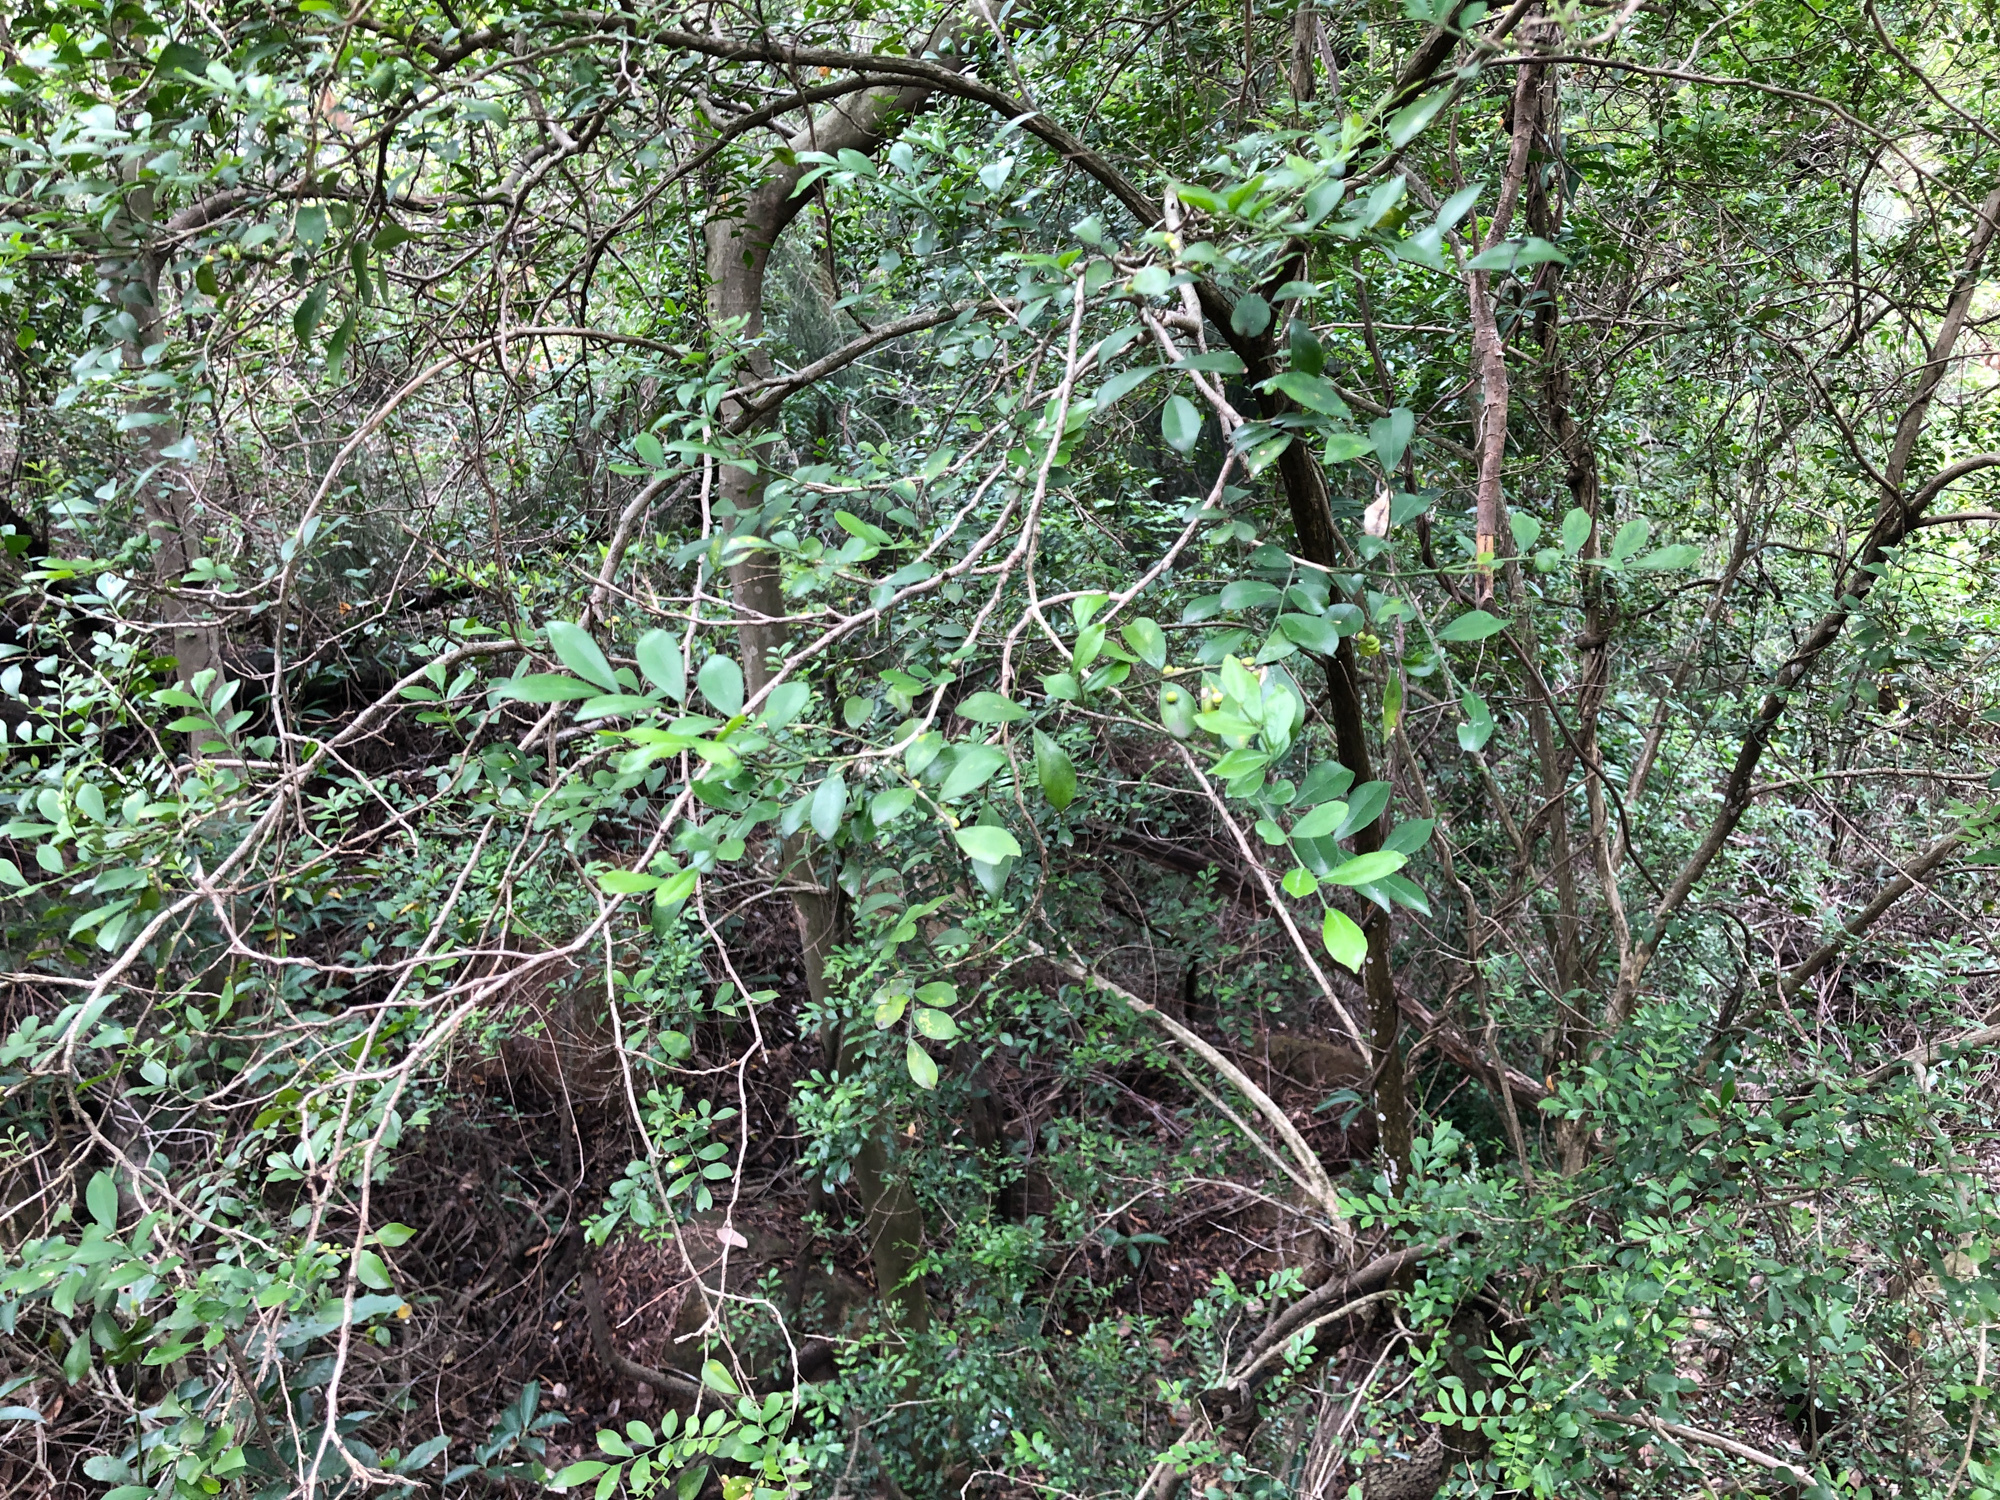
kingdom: Plantae
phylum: Tracheophyta
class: Magnoliopsida
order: Sapindales
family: Rutaceae
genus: Murraya
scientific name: Murraya paniculata
